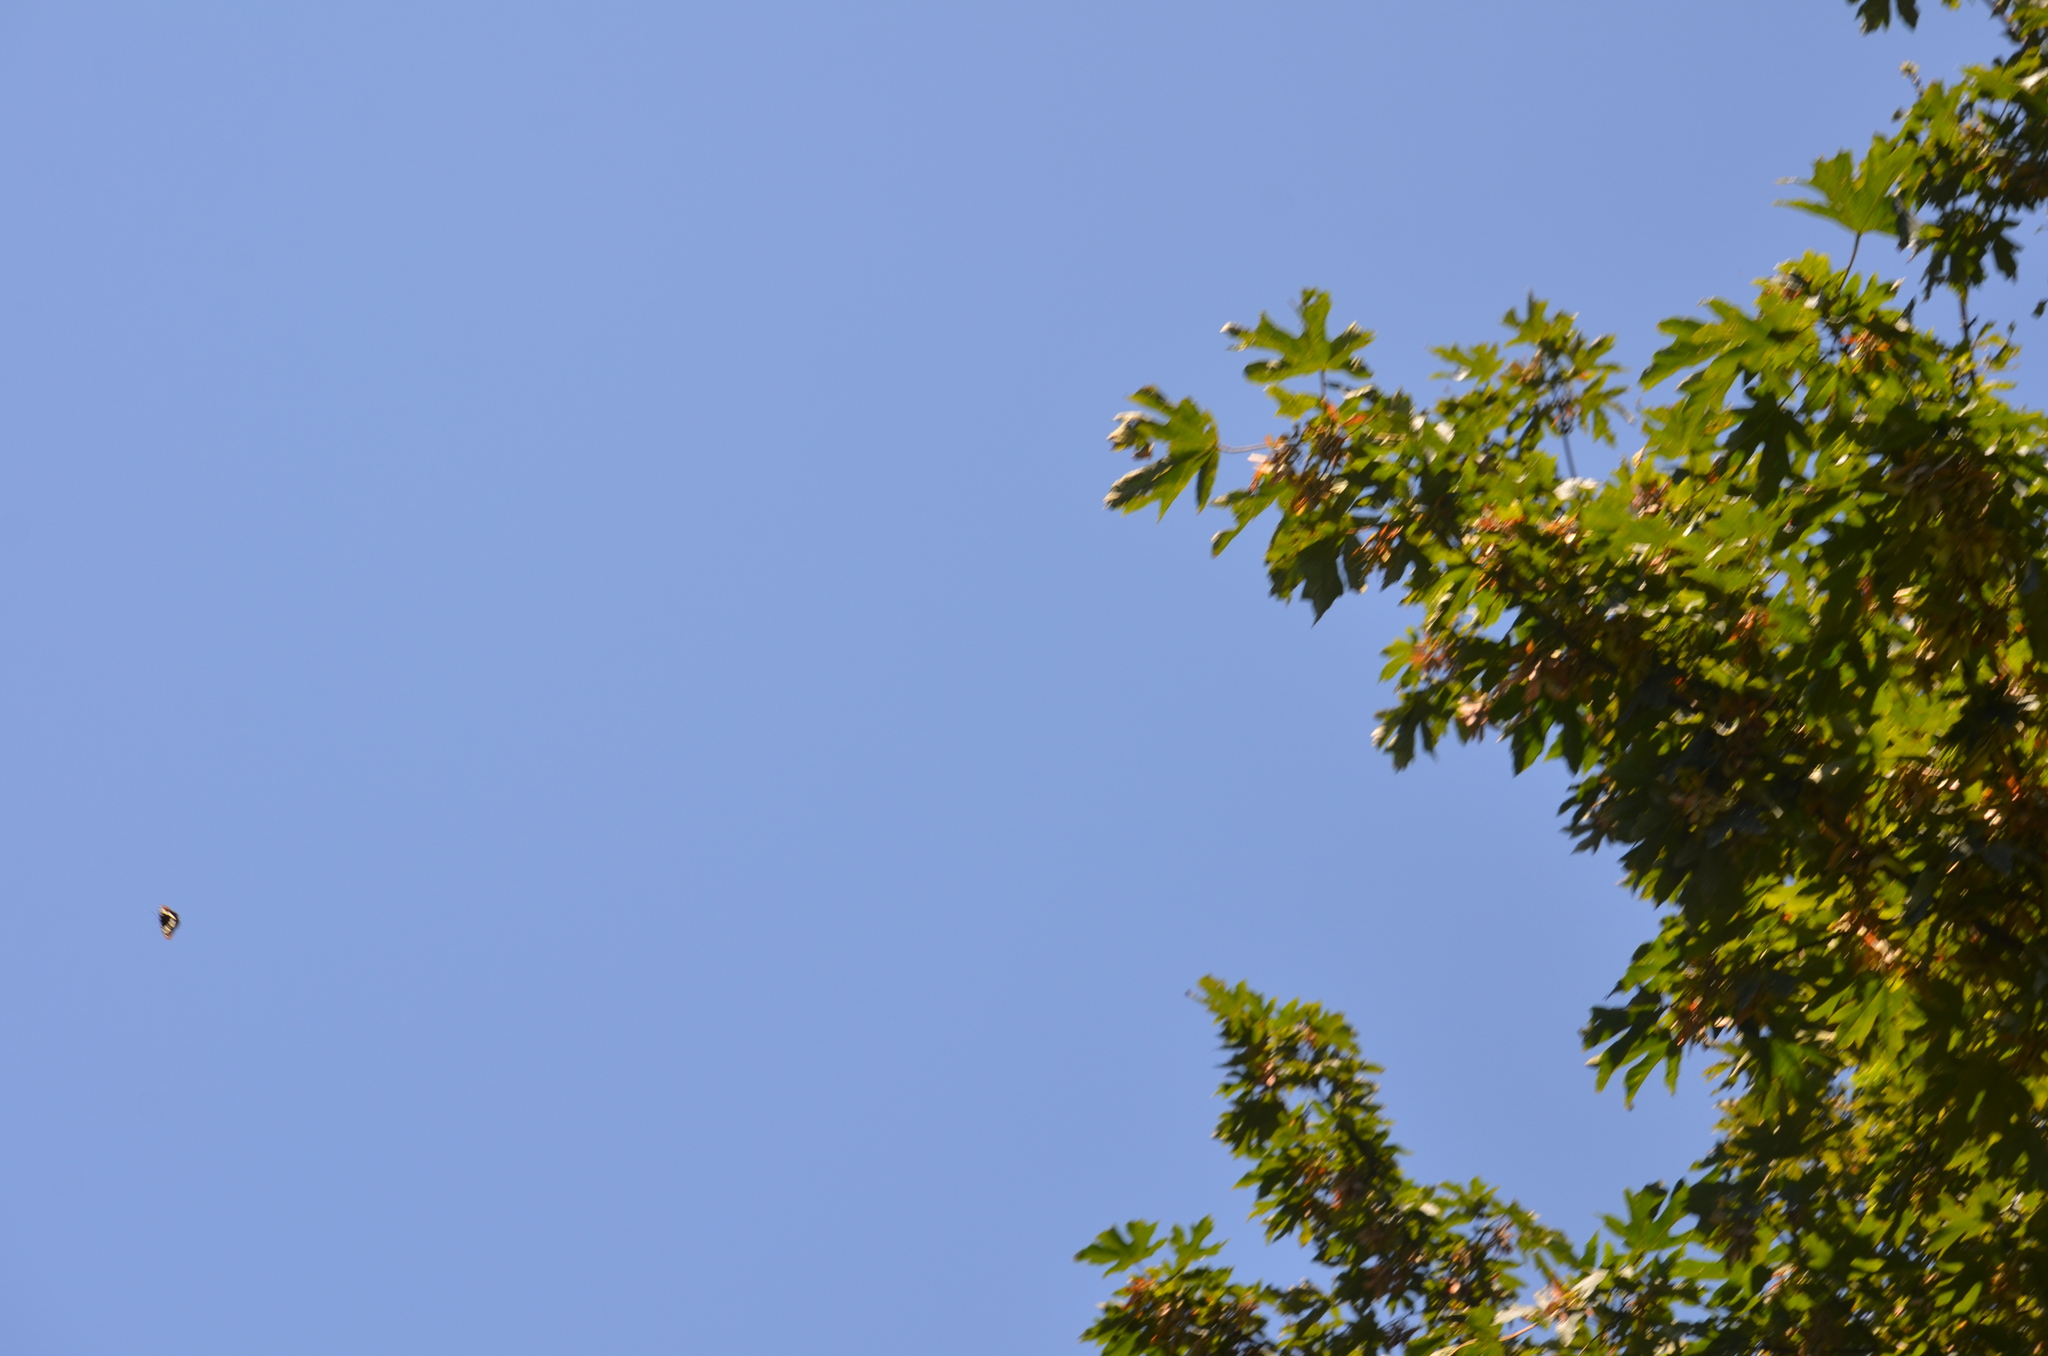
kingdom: Animalia
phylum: Arthropoda
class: Insecta
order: Lepidoptera
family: Nymphalidae
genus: Limenitis
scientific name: Limenitis lorquini
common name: Lorquin's admiral
